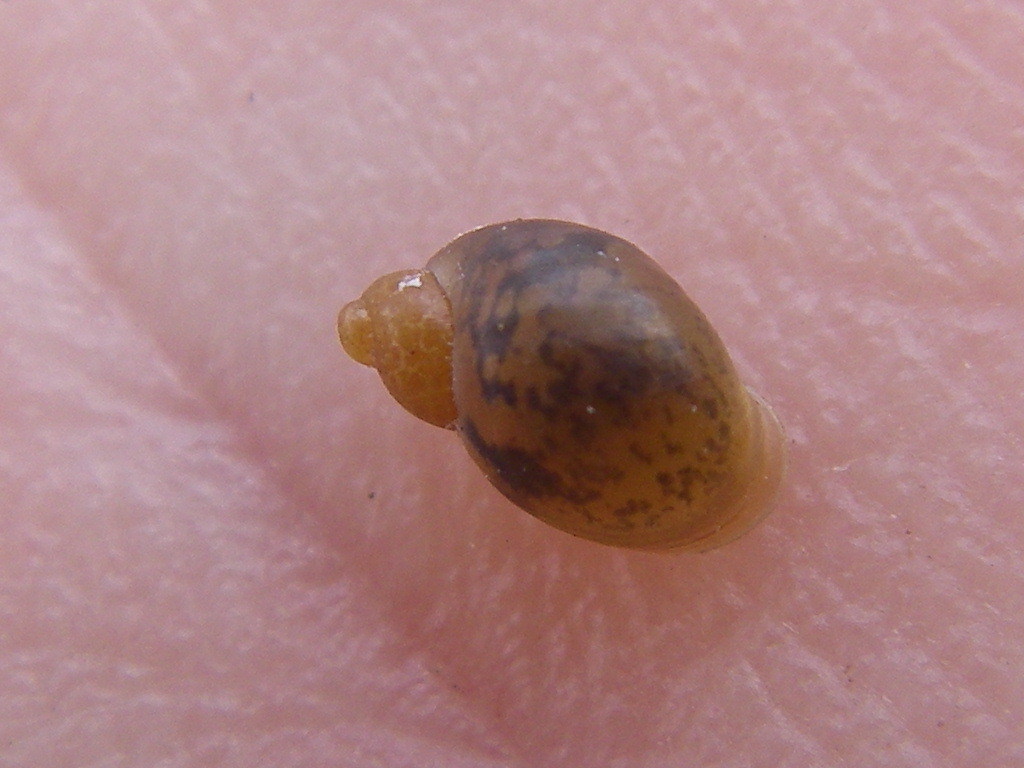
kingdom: Animalia
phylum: Mollusca
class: Gastropoda
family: Lymnaeidae
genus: Ampullaceana
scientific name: Ampullaceana balthica
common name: Wandering pond snail
